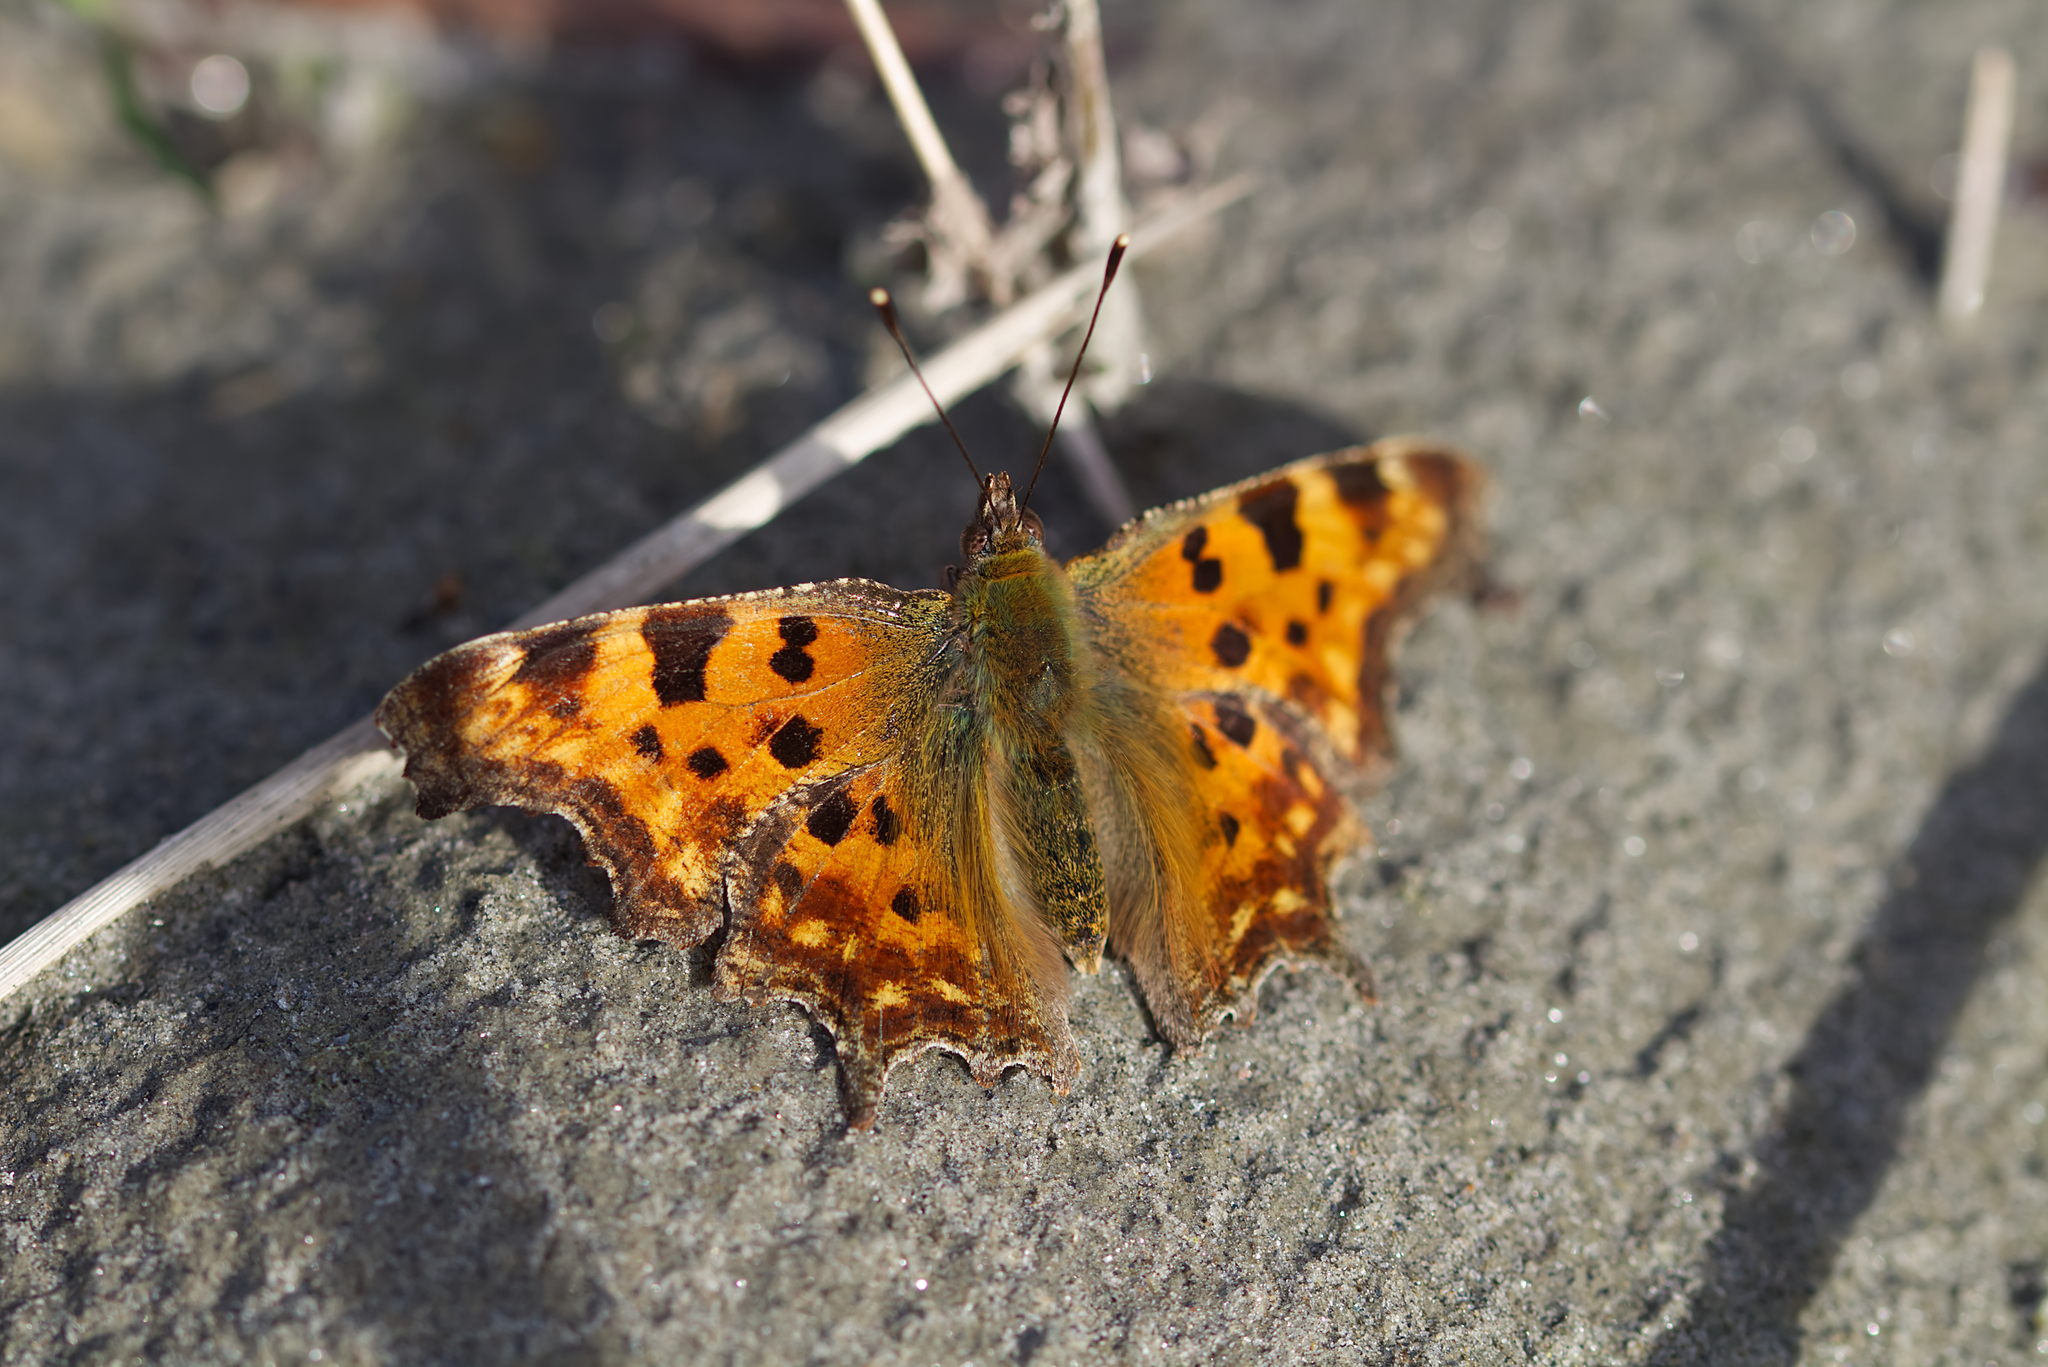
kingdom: Animalia
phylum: Arthropoda
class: Insecta
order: Lepidoptera
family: Nymphalidae
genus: Polygonia
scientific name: Polygonia c-album
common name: Comma
